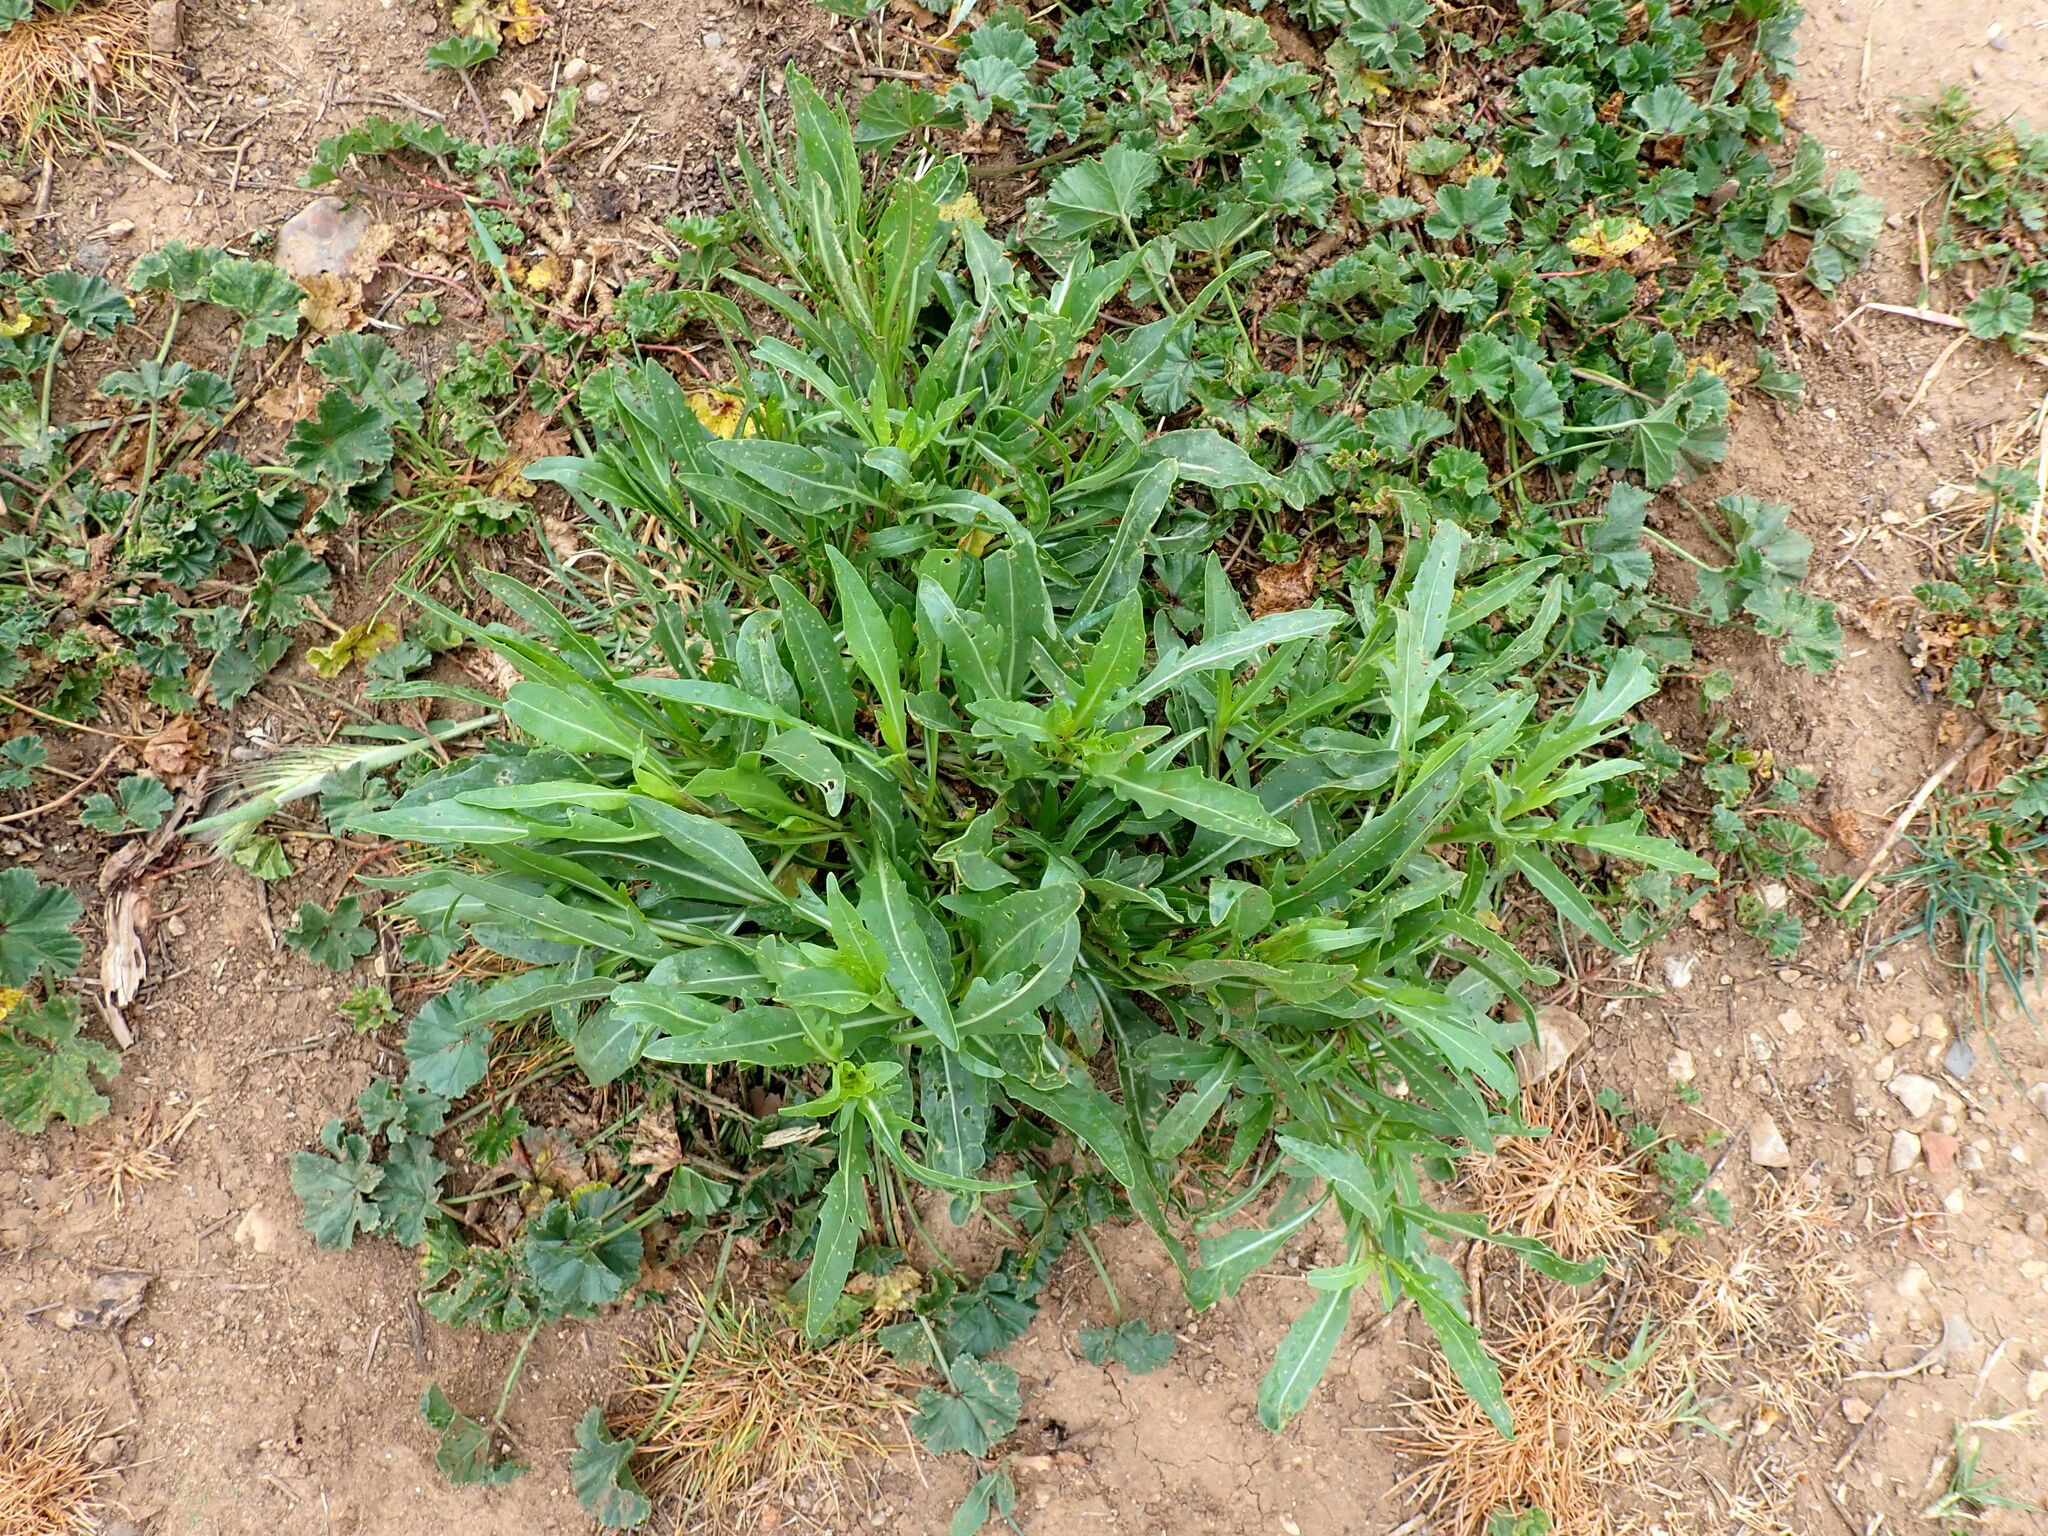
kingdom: Plantae
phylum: Tracheophyta
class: Magnoliopsida
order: Brassicales
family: Brassicaceae
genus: Diplotaxis
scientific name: Diplotaxis tenuifolia
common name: Perennial wall-rocket
